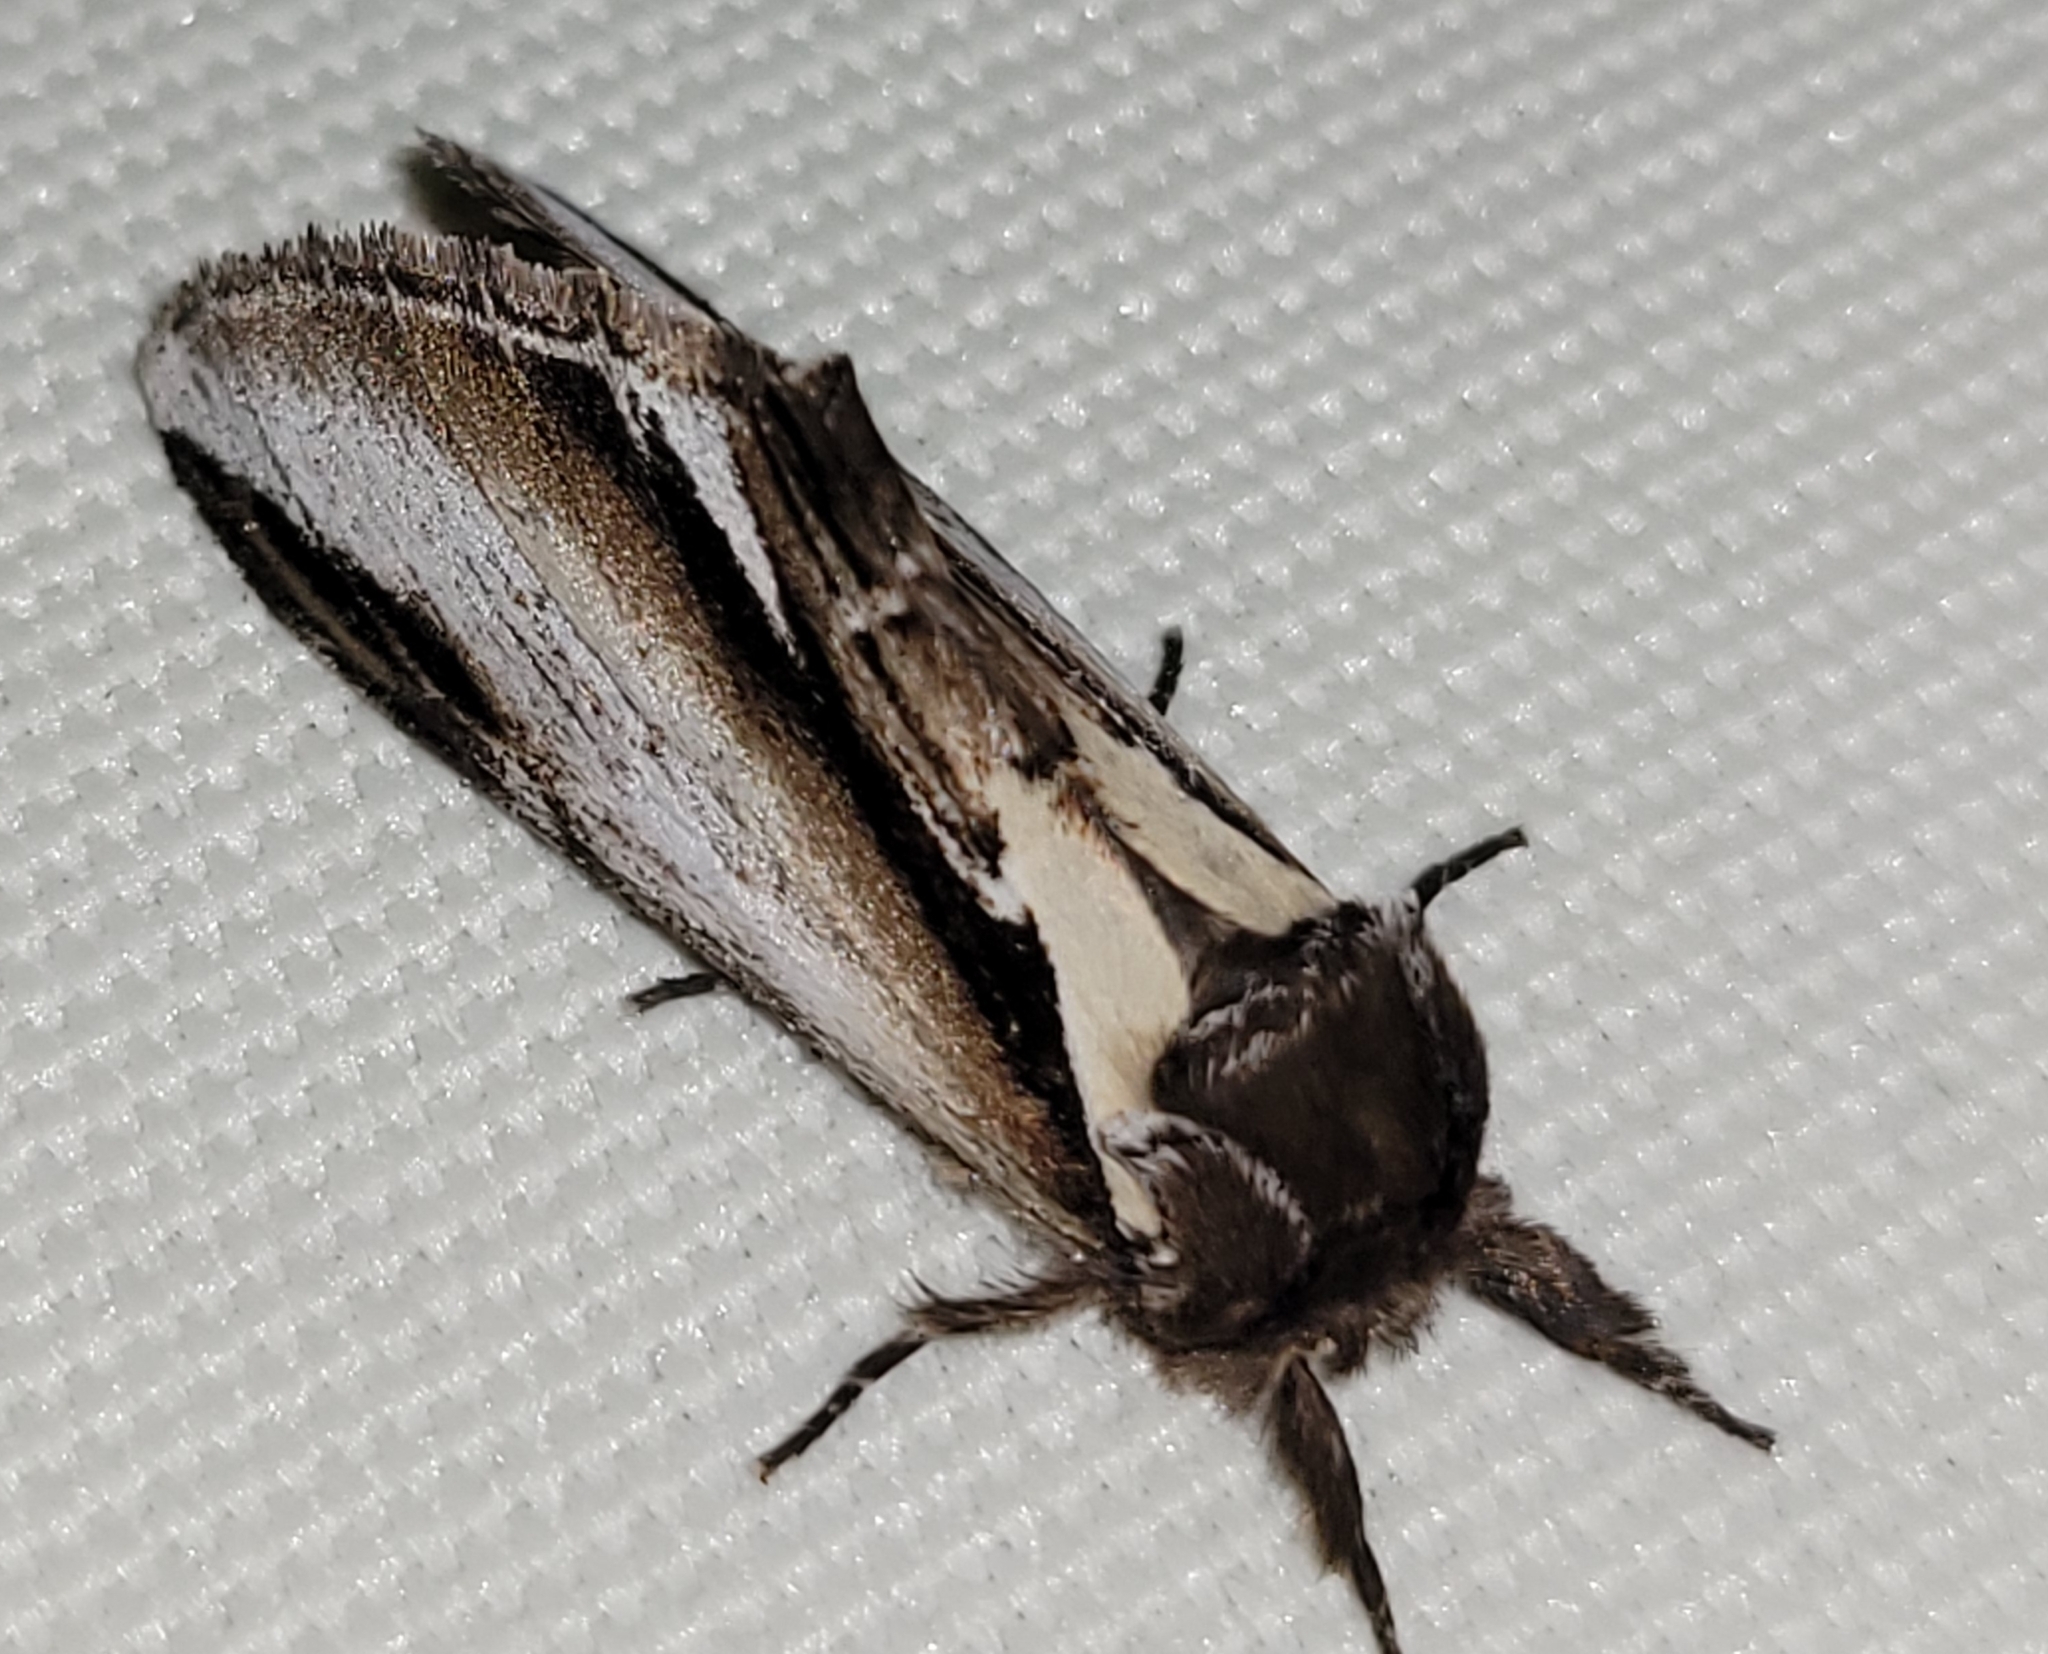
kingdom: Animalia
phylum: Arthropoda
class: Insecta
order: Lepidoptera
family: Notodontidae
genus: Pheosia
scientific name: Pheosia gnoma
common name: Lesser swallow prominent
